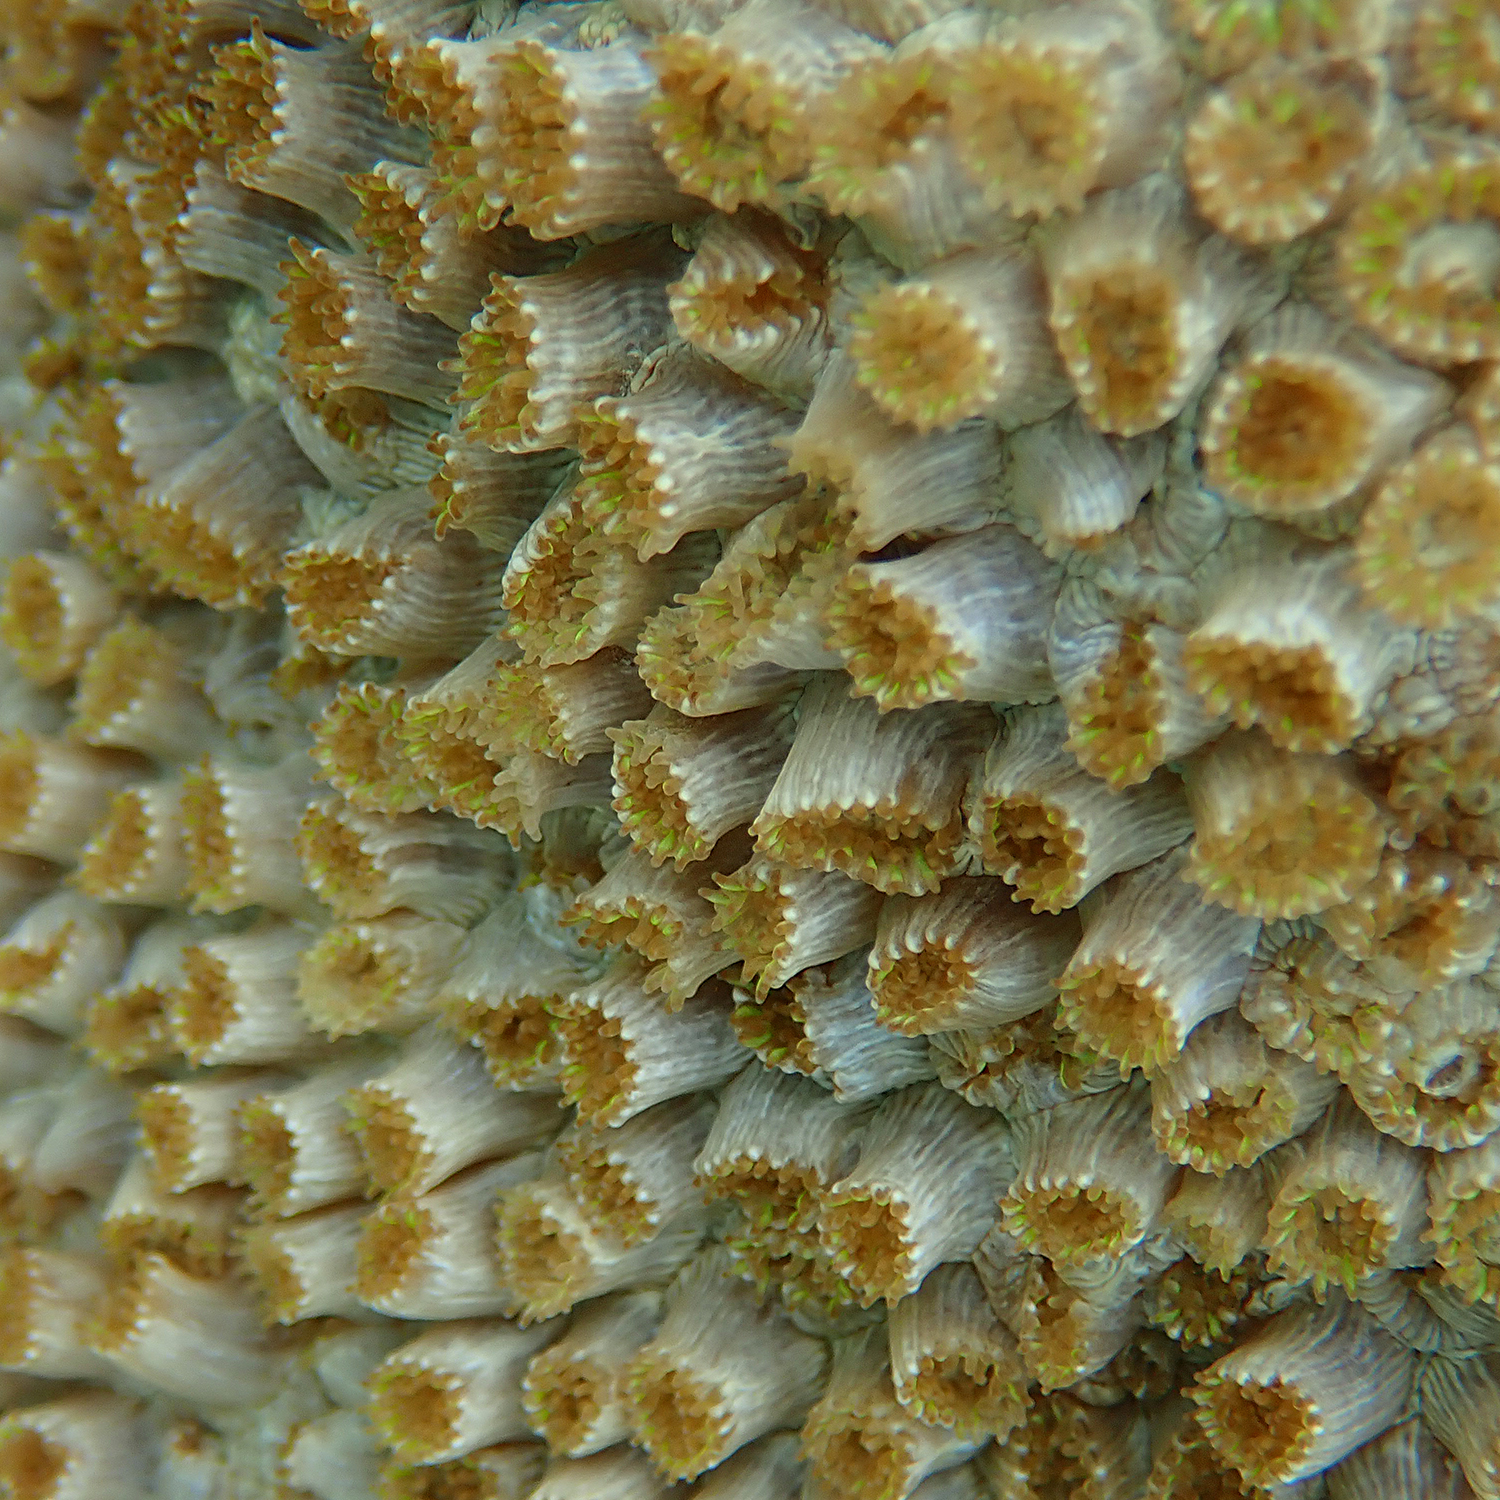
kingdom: Animalia
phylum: Cnidaria
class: Anthozoa
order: Scleractinia
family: Plesiastreidae
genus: Plesiastrea
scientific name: Plesiastrea versipora
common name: Small knob coral
